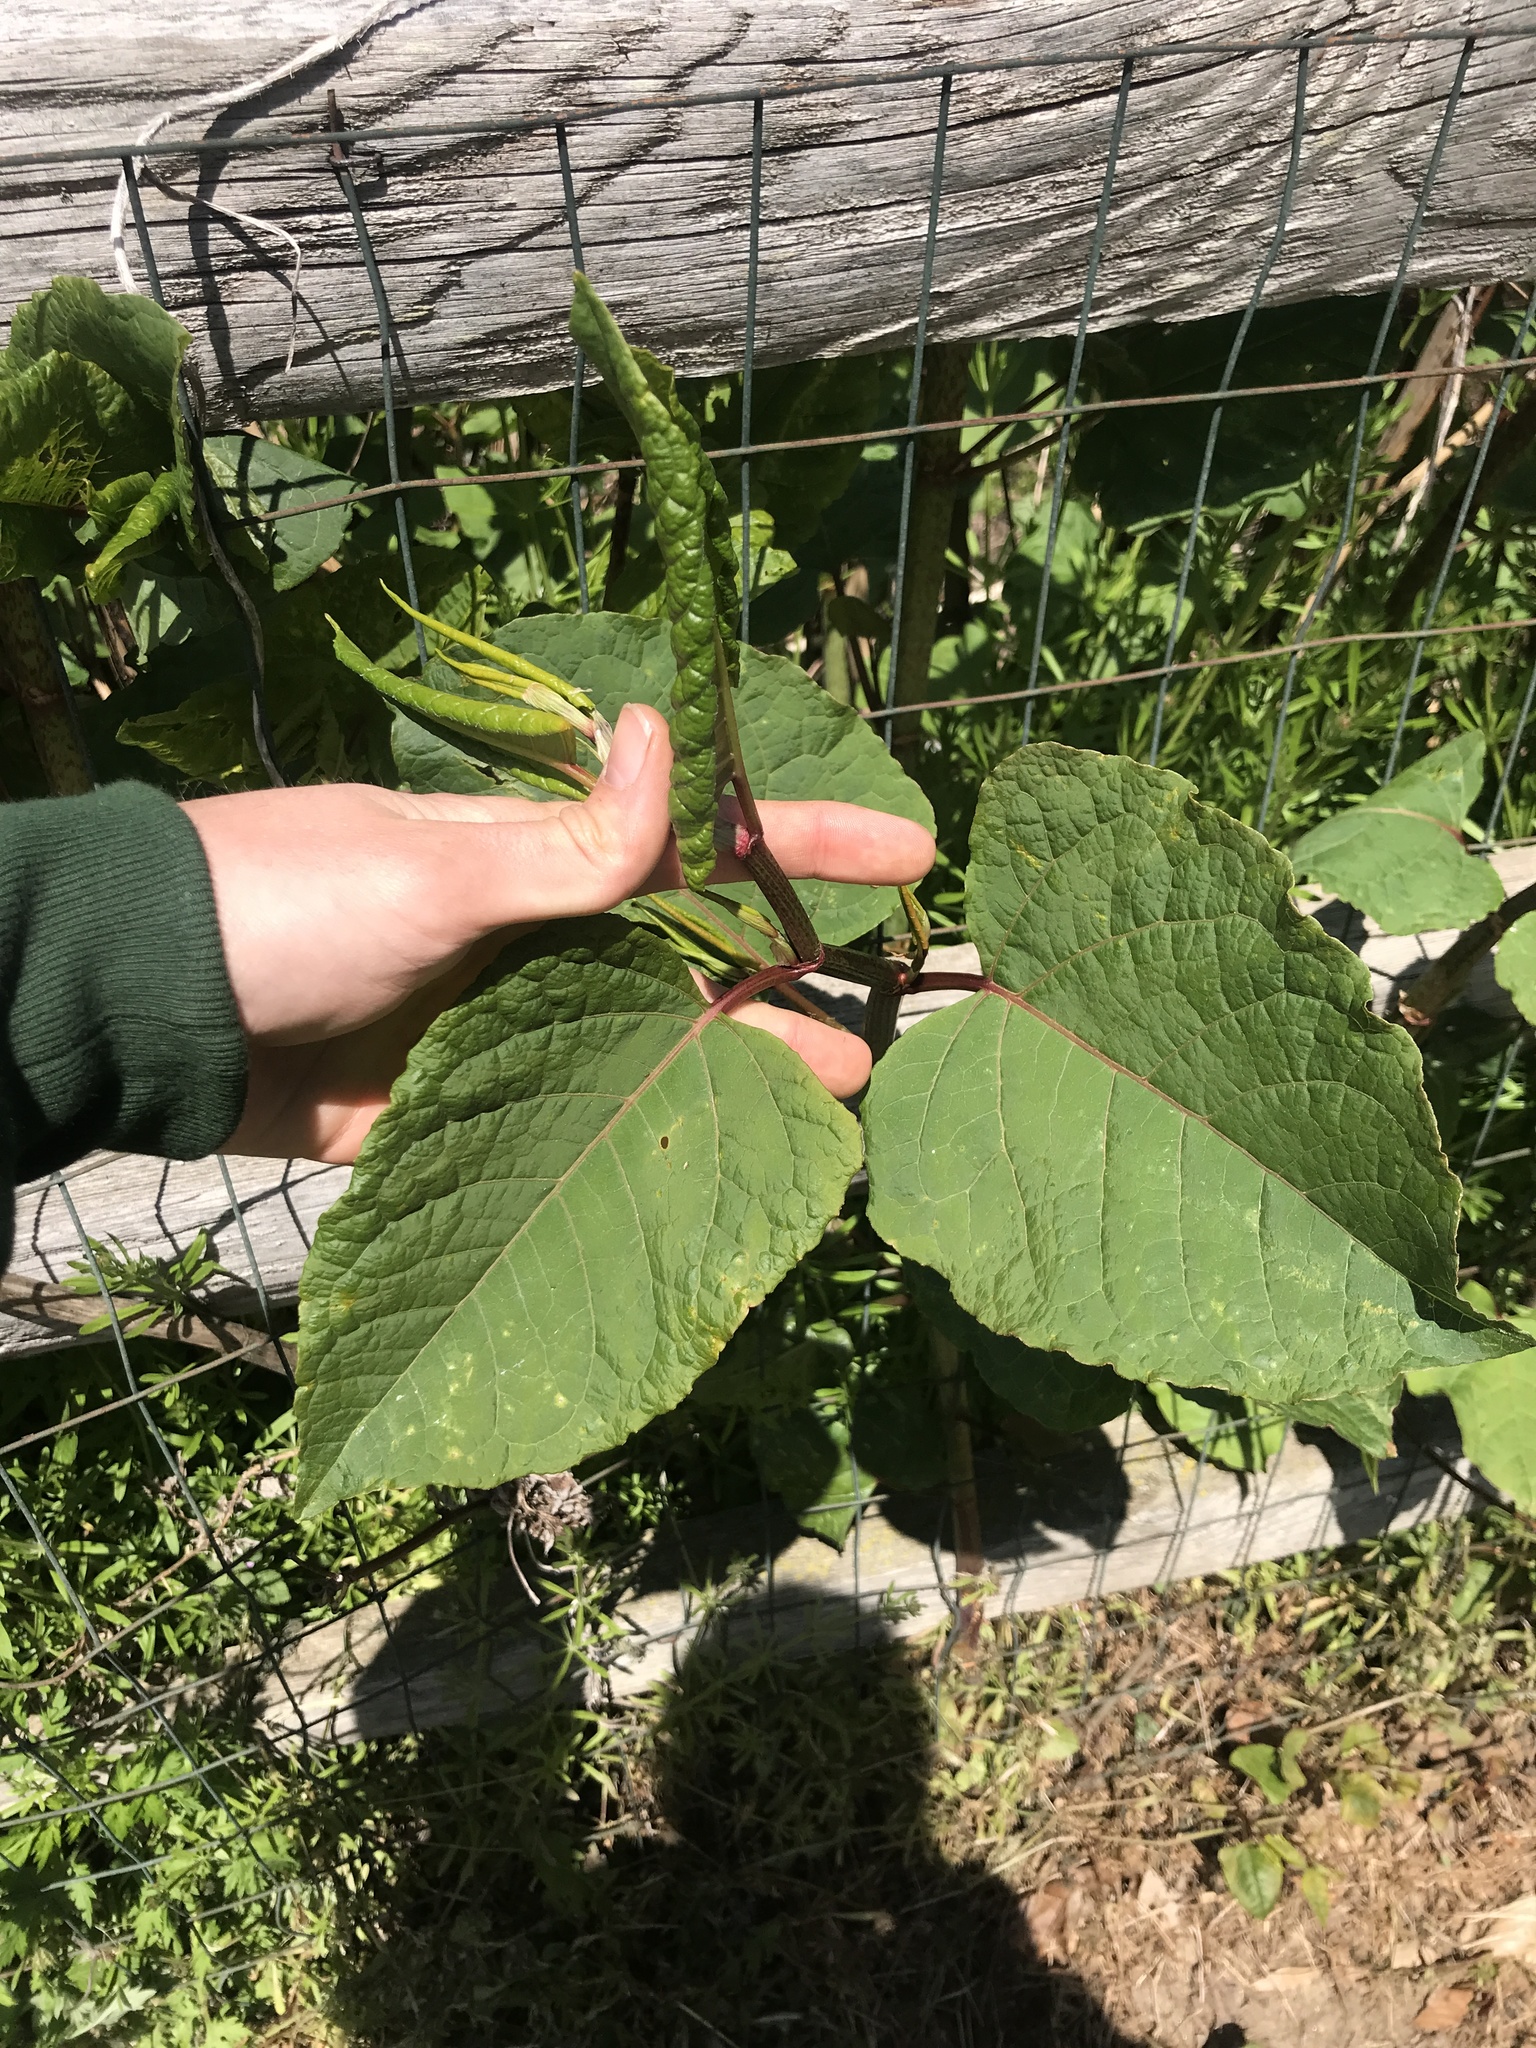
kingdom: Plantae
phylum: Tracheophyta
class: Magnoliopsida
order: Caryophyllales
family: Polygonaceae
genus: Reynoutria
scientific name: Reynoutria japonica
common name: Japanese knotweed
